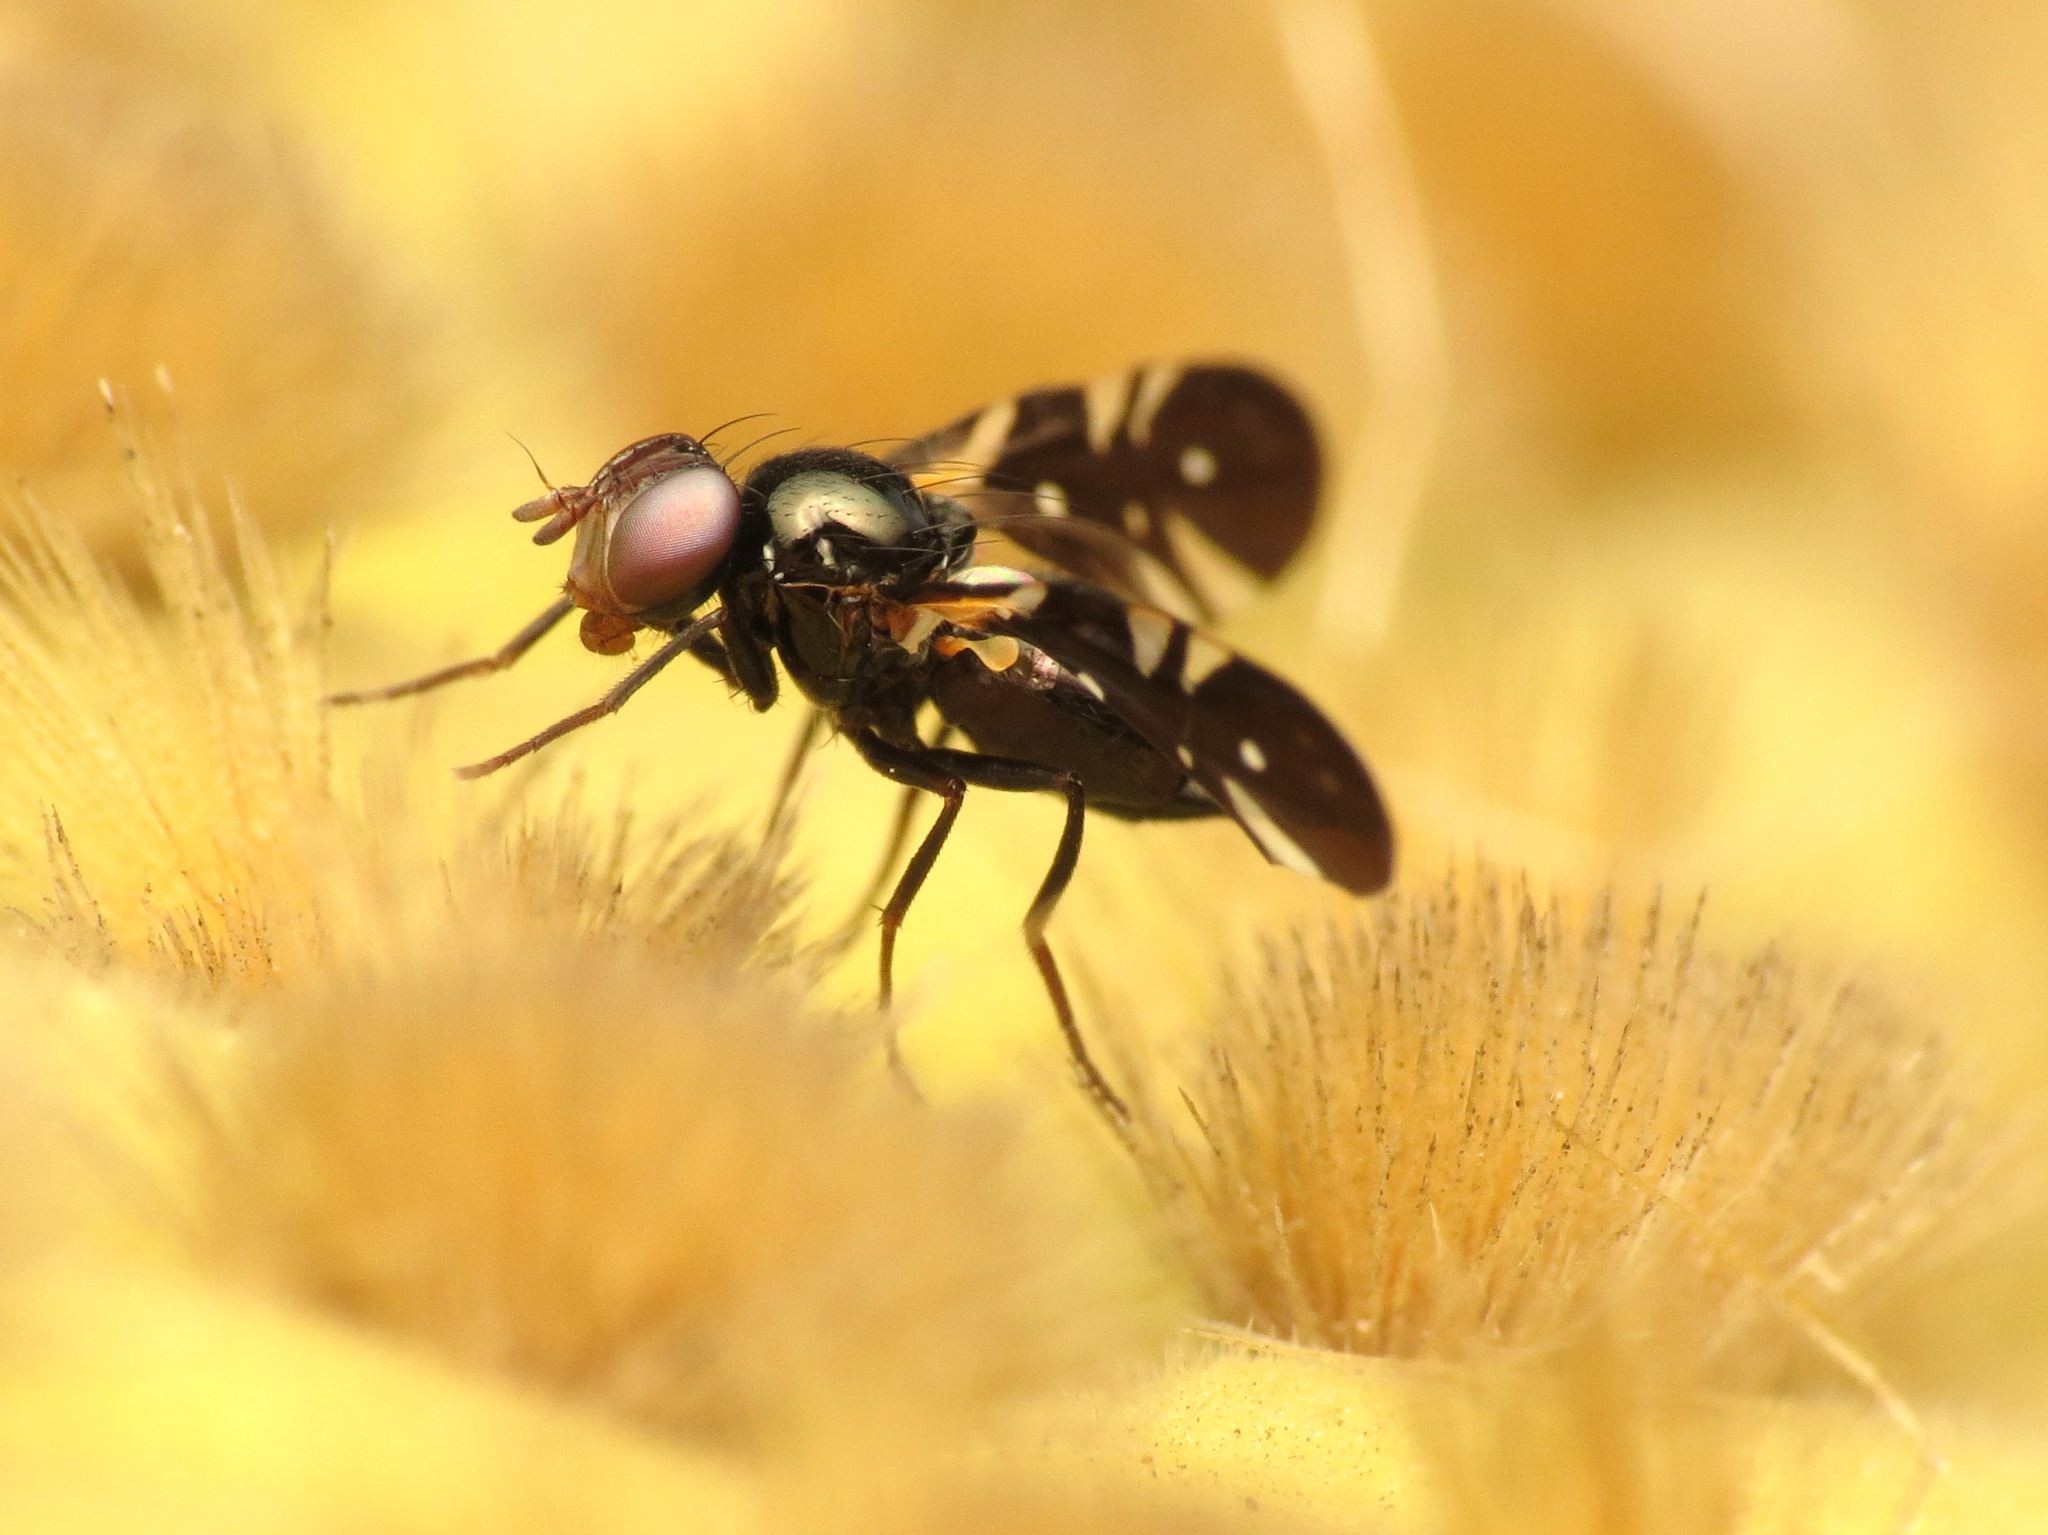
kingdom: Animalia
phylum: Arthropoda
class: Insecta
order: Diptera
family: Tephritidae
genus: Oxyaciura
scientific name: Oxyaciura tibialis
